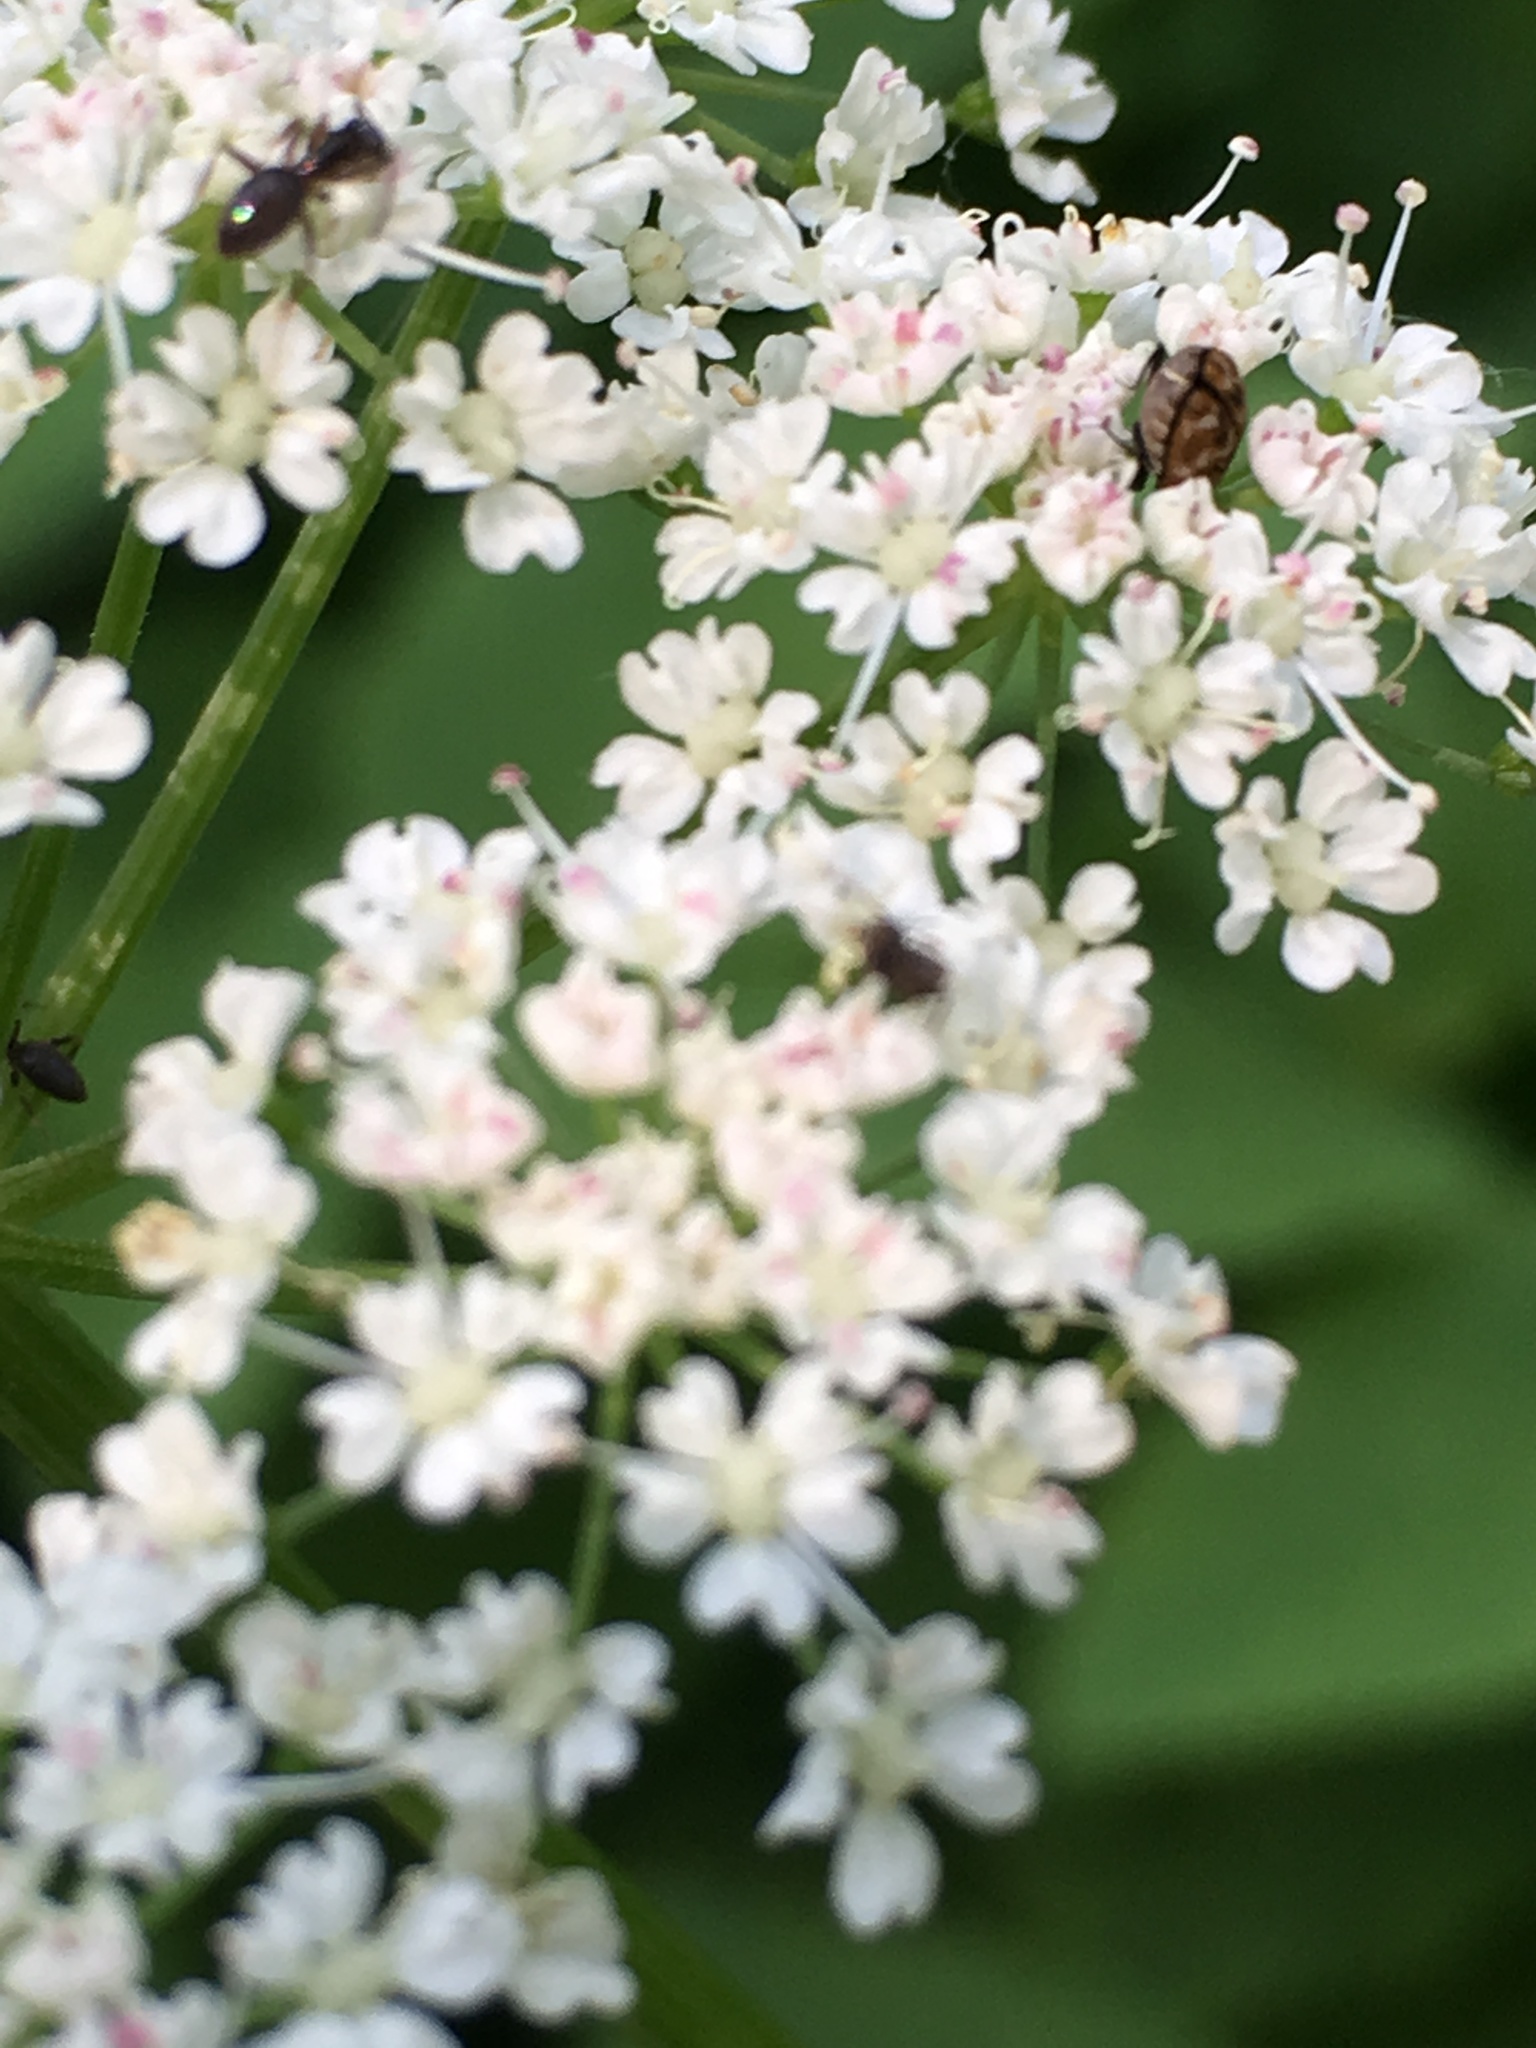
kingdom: Plantae
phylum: Tracheophyta
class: Magnoliopsida
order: Apiales
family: Apiaceae
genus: Aegopodium
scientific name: Aegopodium podagraria
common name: Ground-elder
